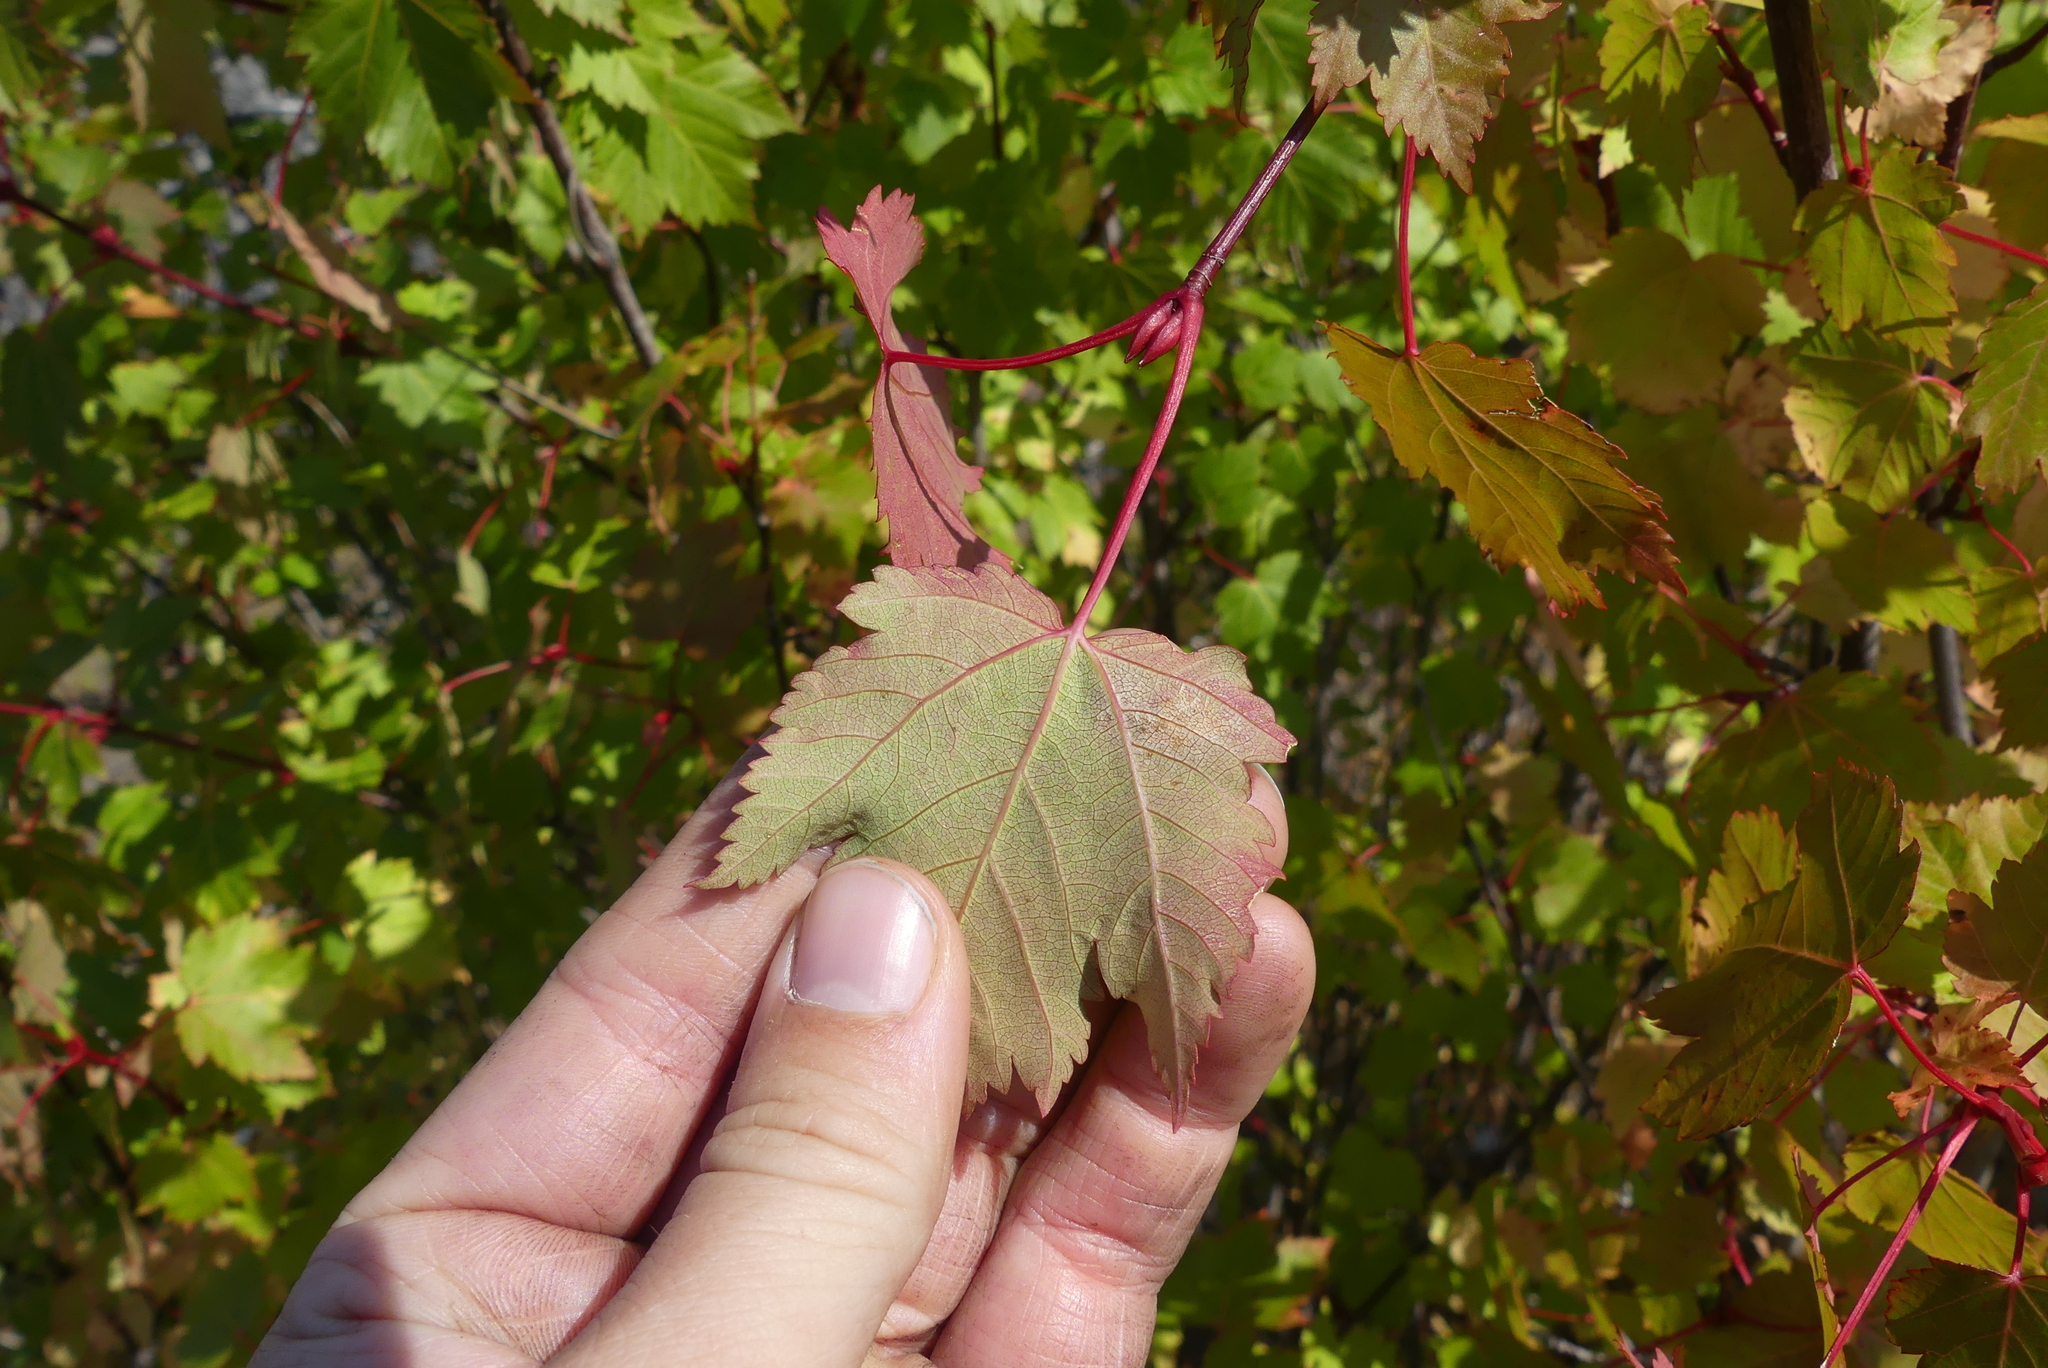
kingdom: Plantae
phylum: Tracheophyta
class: Magnoliopsida
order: Sapindales
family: Sapindaceae
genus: Acer
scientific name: Acer glabrum
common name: Rocky mountain maple
